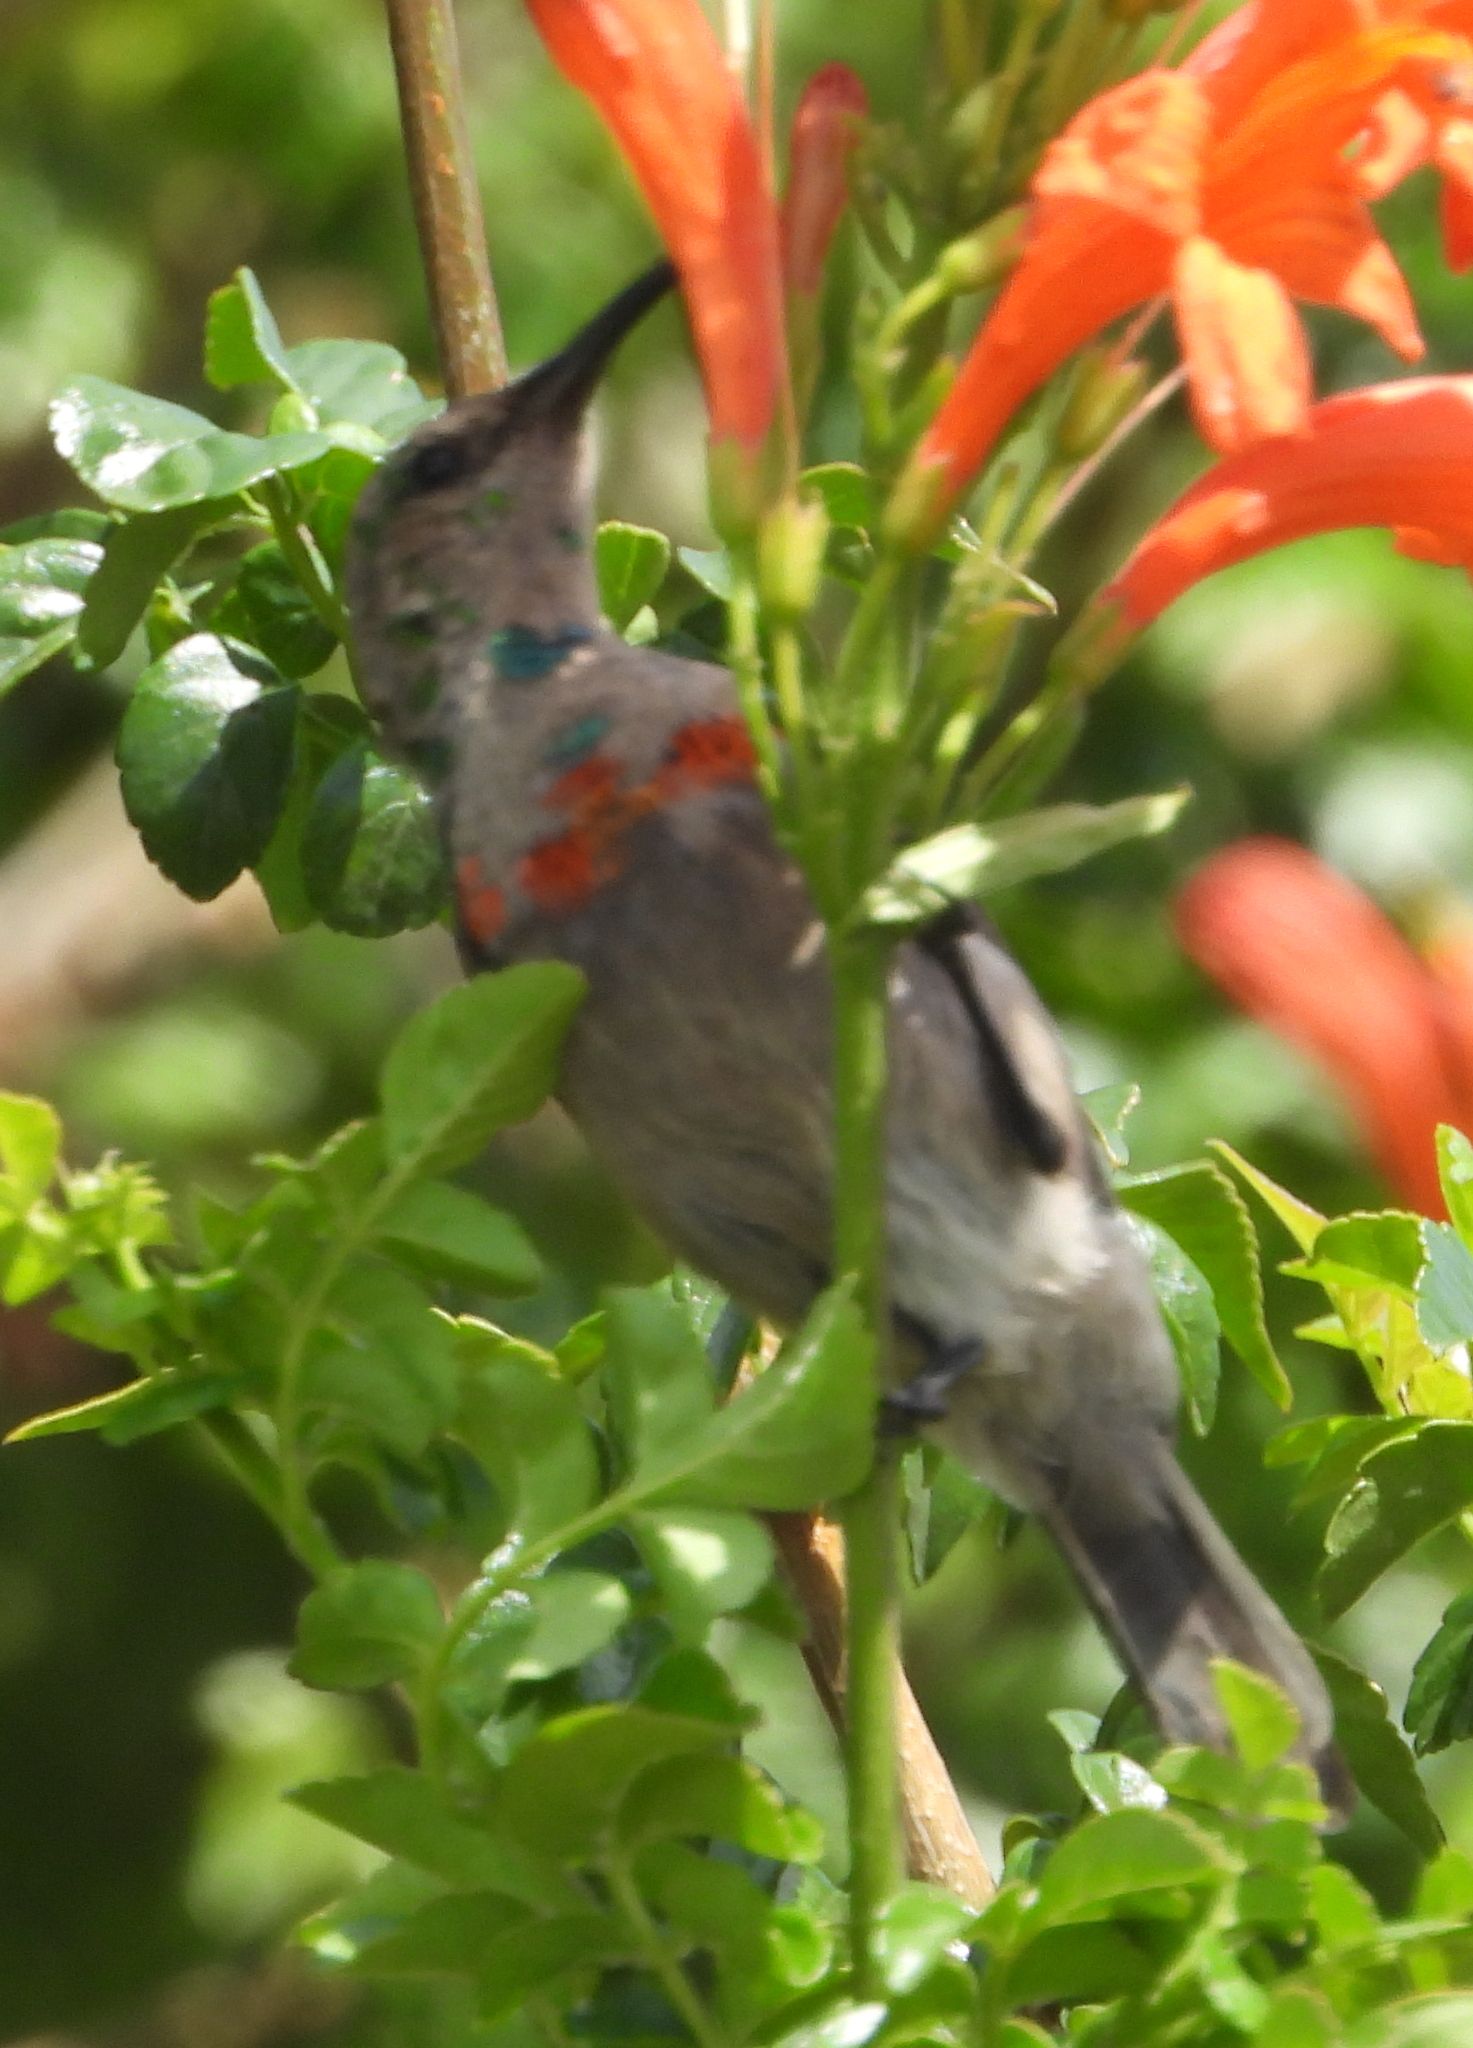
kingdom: Animalia
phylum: Chordata
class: Aves
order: Passeriformes
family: Nectariniidae
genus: Cinnyris
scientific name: Cinnyris chalybeus
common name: Southern double-collared sunbird
